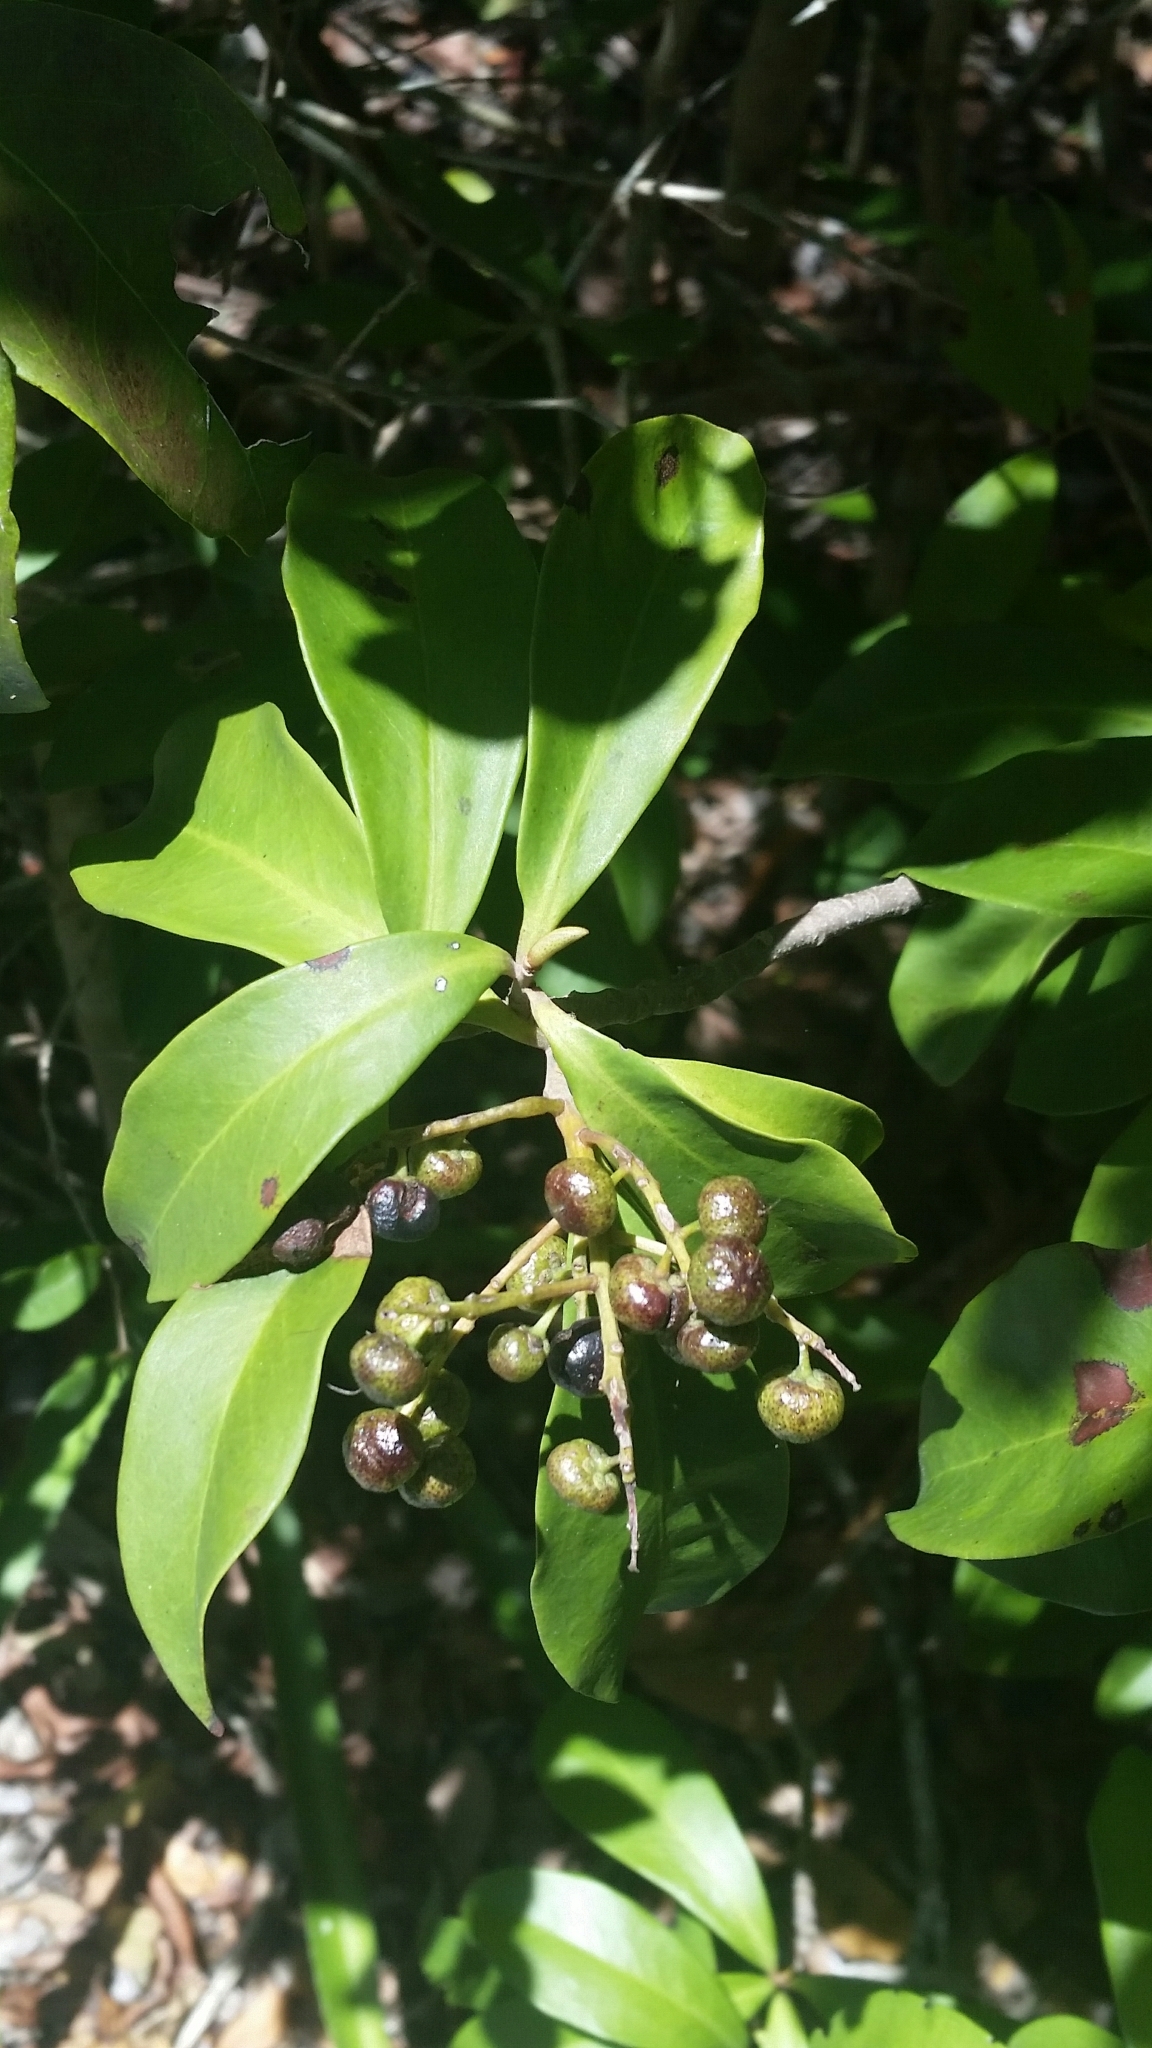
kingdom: Plantae
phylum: Tracheophyta
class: Magnoliopsida
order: Ericales
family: Primulaceae
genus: Ardisia
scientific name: Ardisia escallonioides
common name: Island marlberry
